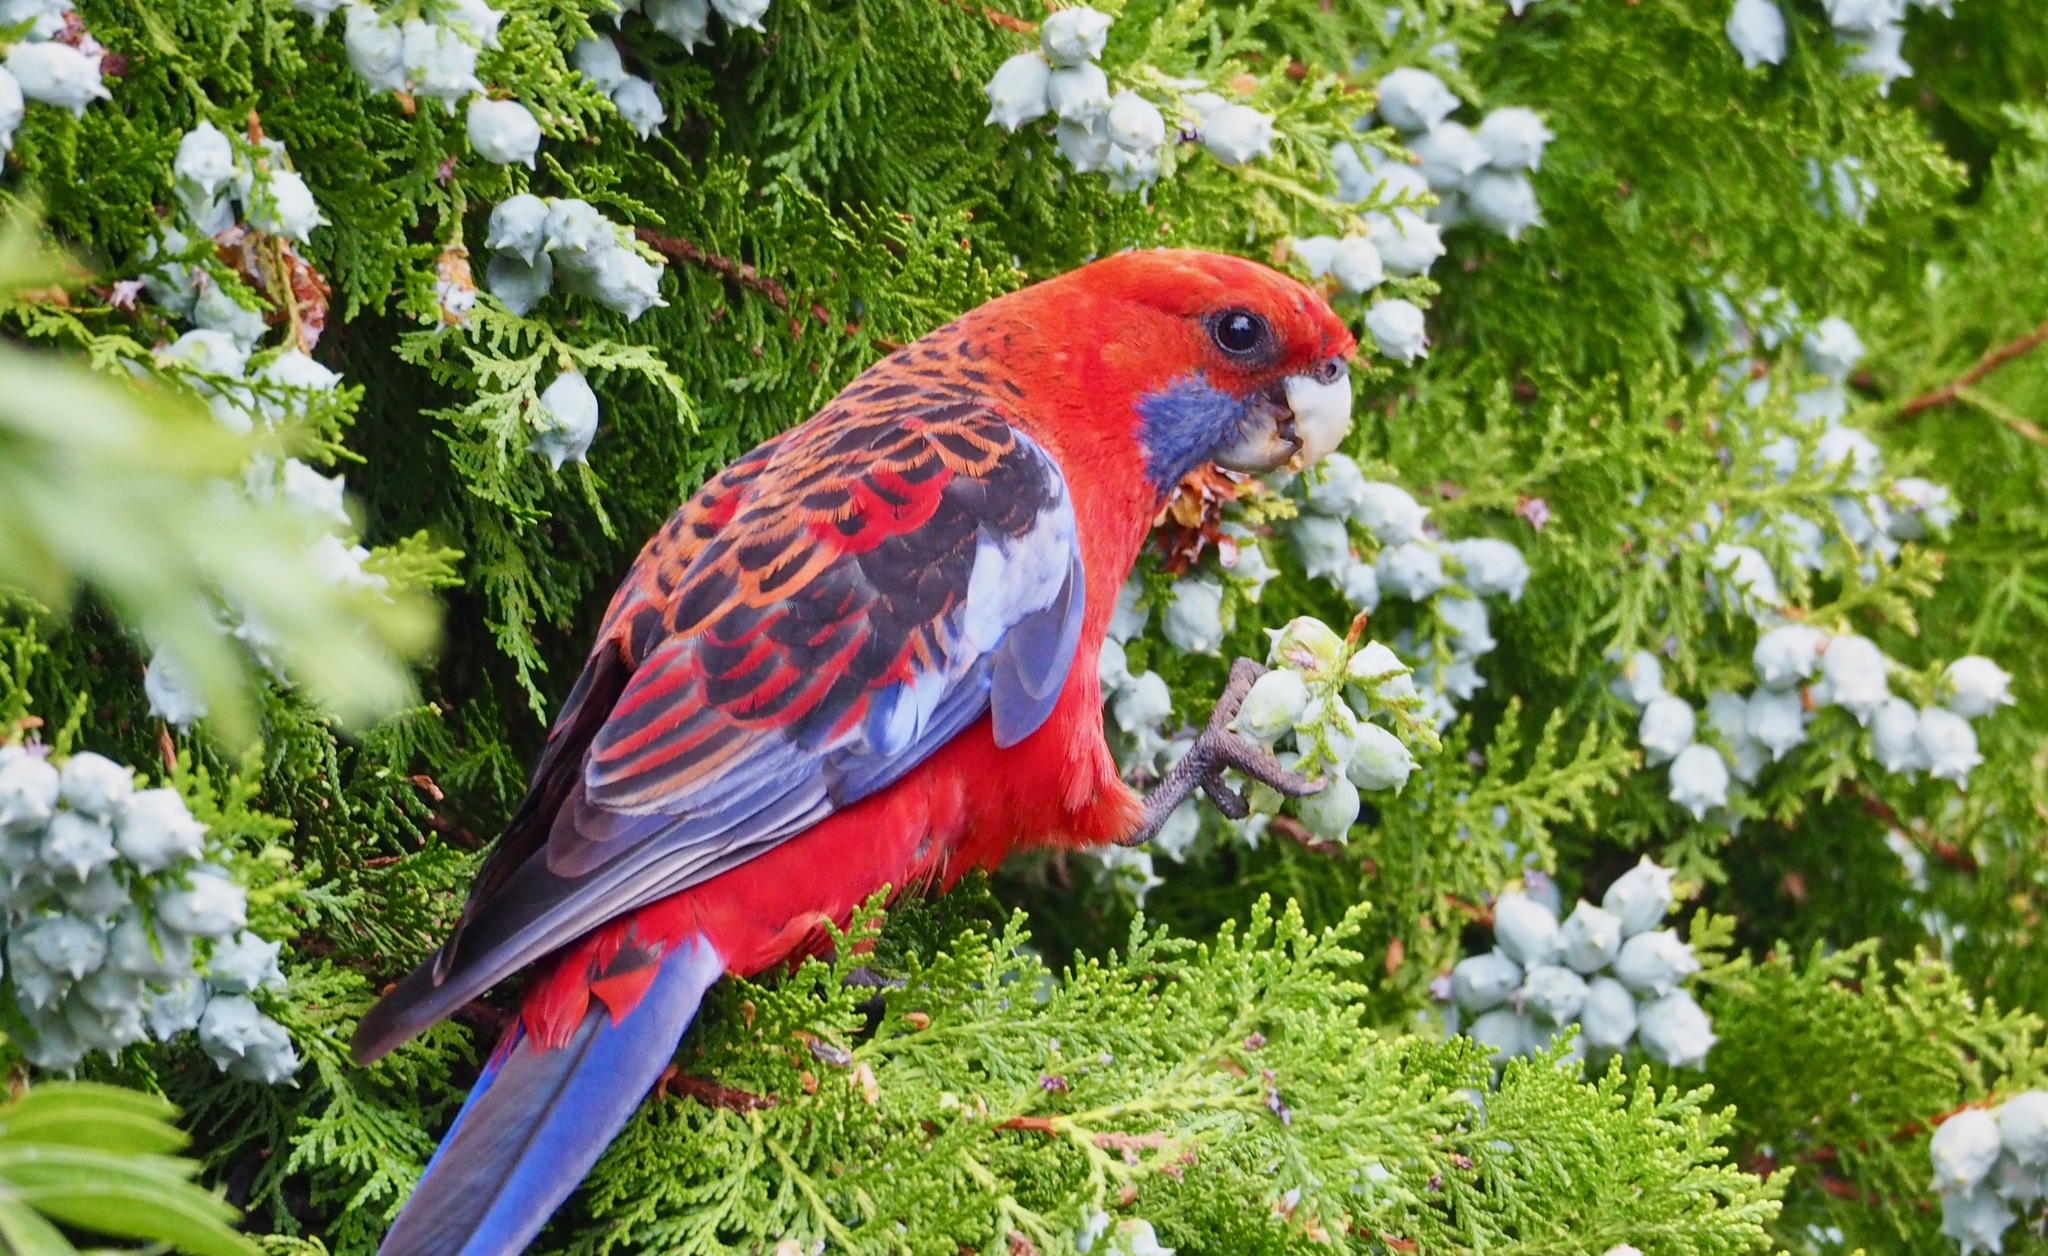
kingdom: Animalia
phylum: Chordata
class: Aves
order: Psittaciformes
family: Psittacidae
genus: Platycercus
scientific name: Platycercus elegans
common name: Crimson rosella
